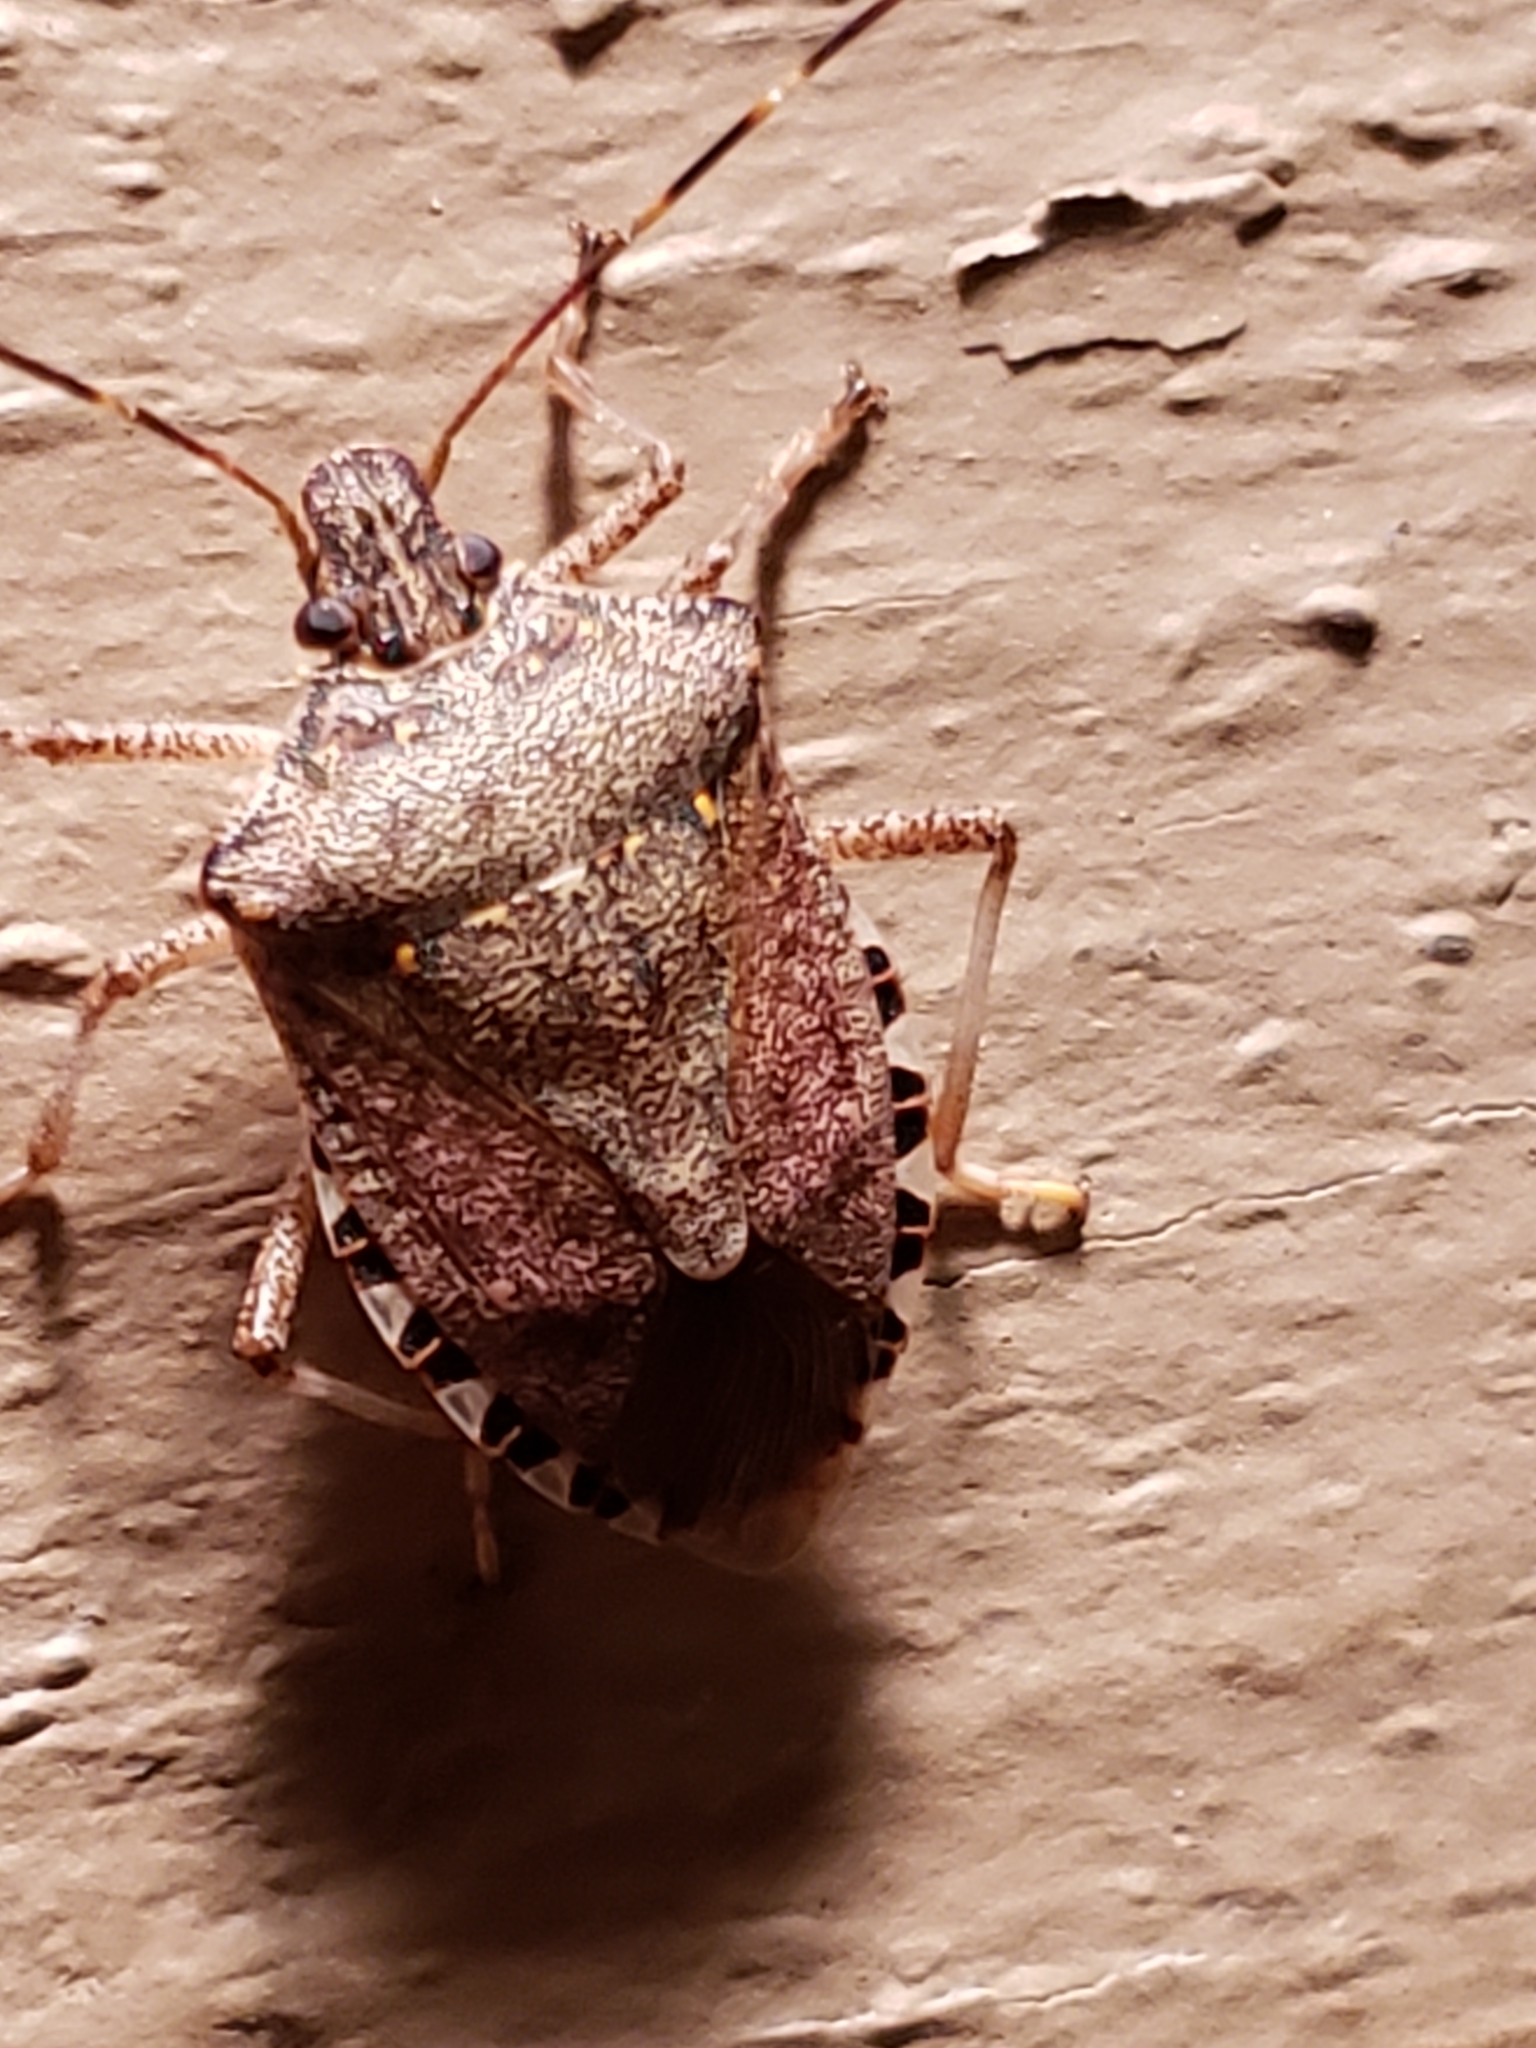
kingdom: Animalia
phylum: Arthropoda
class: Insecta
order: Hemiptera
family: Pentatomidae
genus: Halyomorpha
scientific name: Halyomorpha halys
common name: Brown marmorated stink bug
